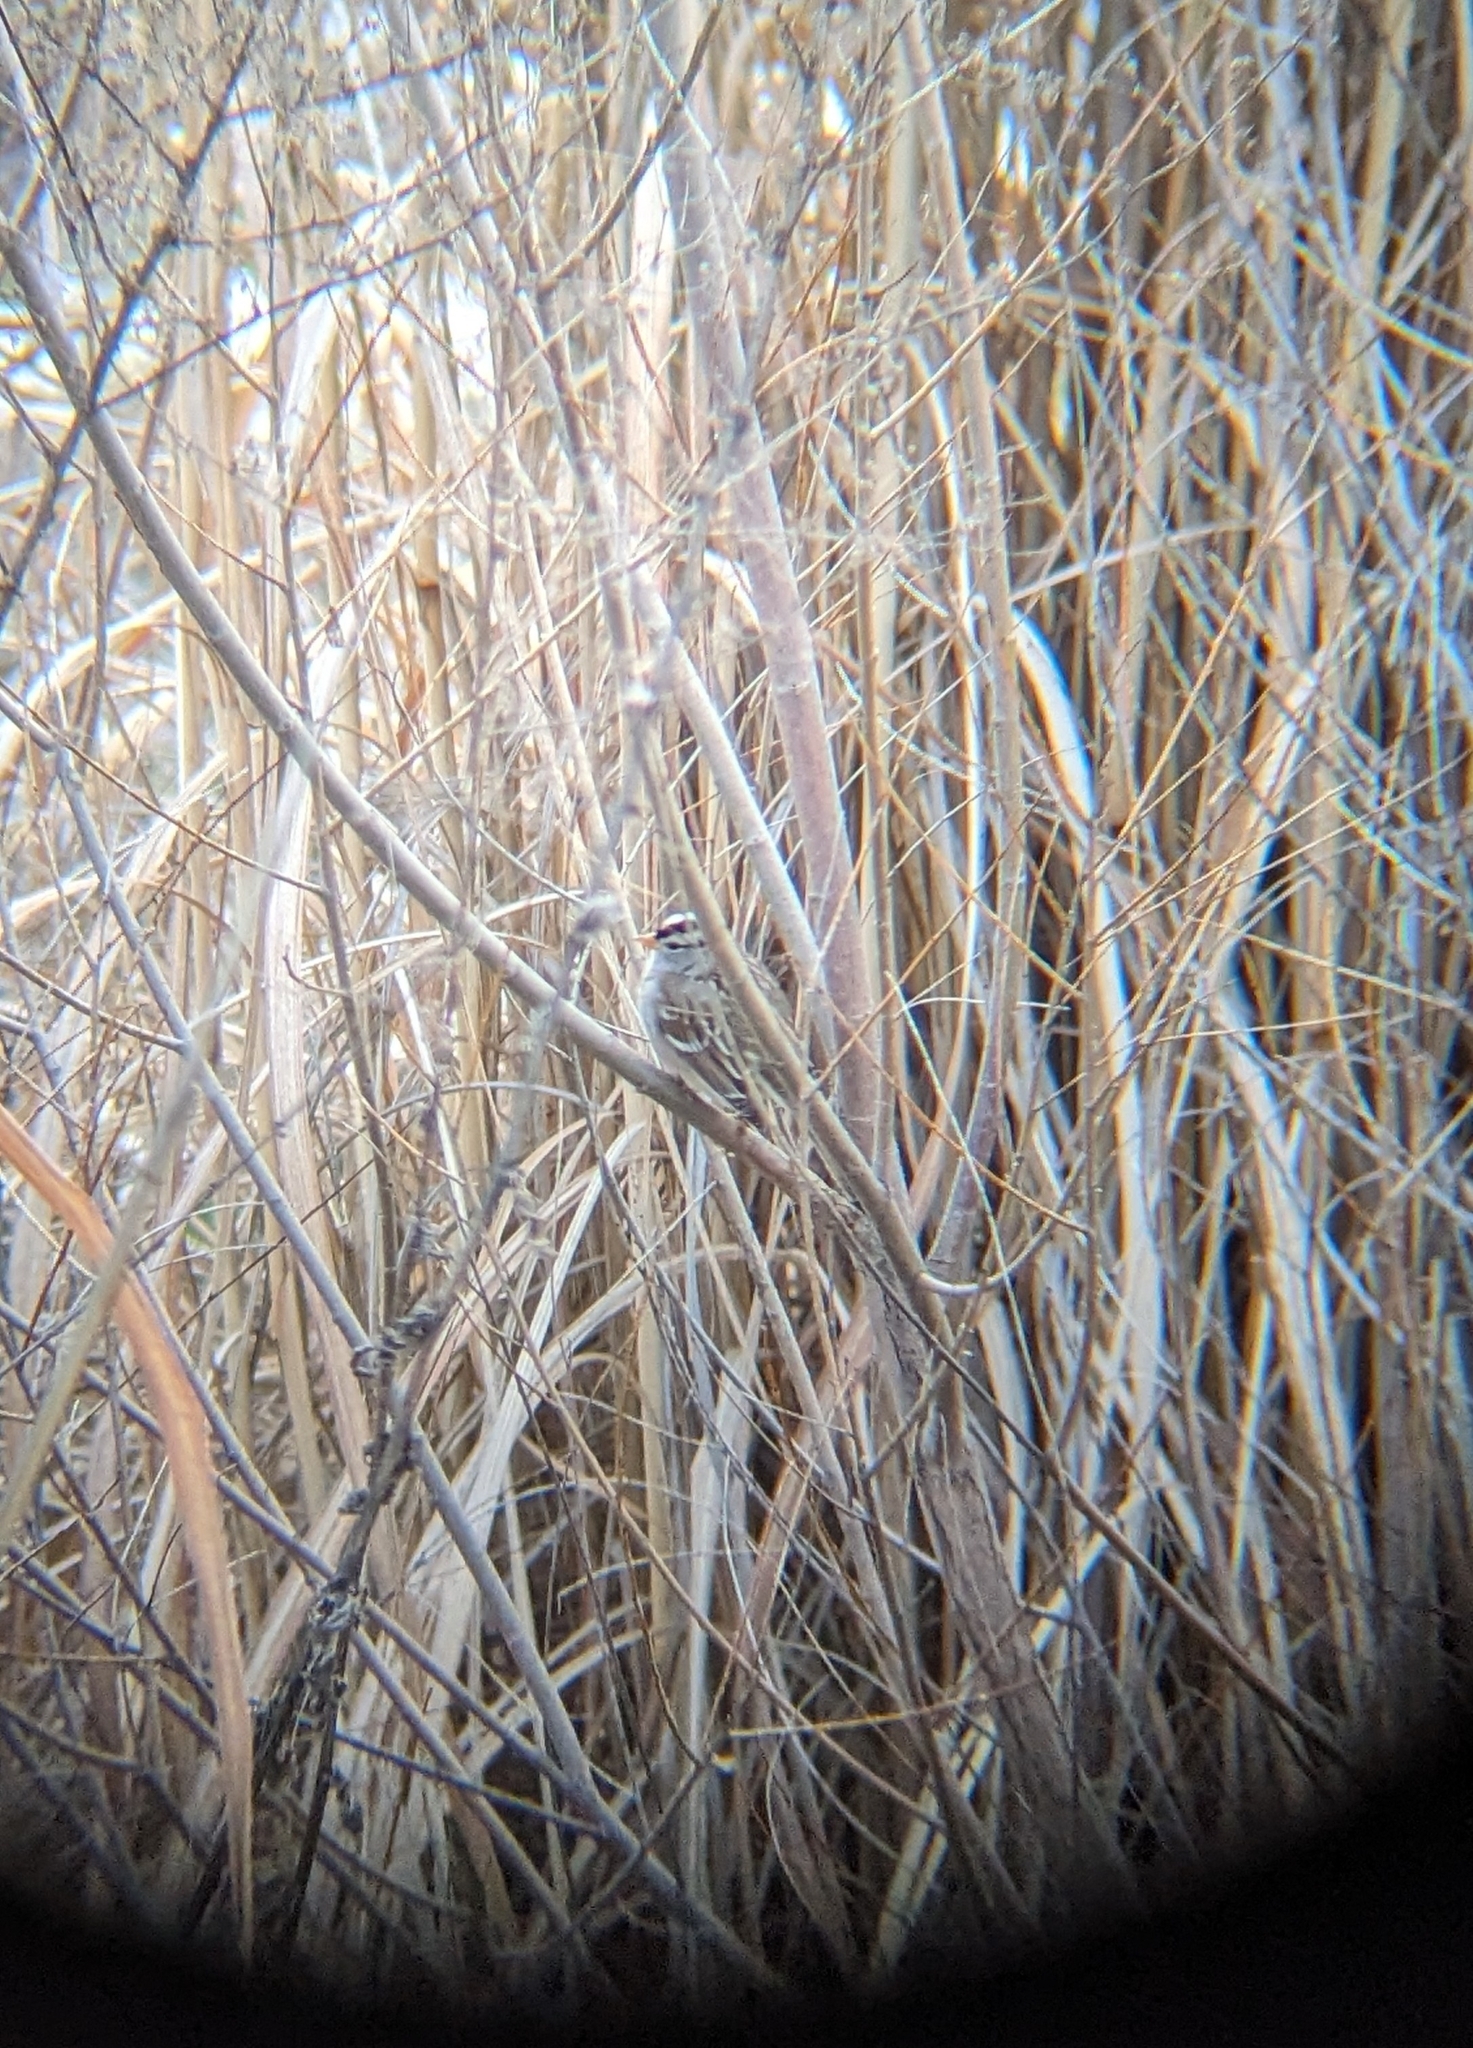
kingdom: Animalia
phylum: Chordata
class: Aves
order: Passeriformes
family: Passerellidae
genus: Zonotrichia
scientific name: Zonotrichia leucophrys
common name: White-crowned sparrow
